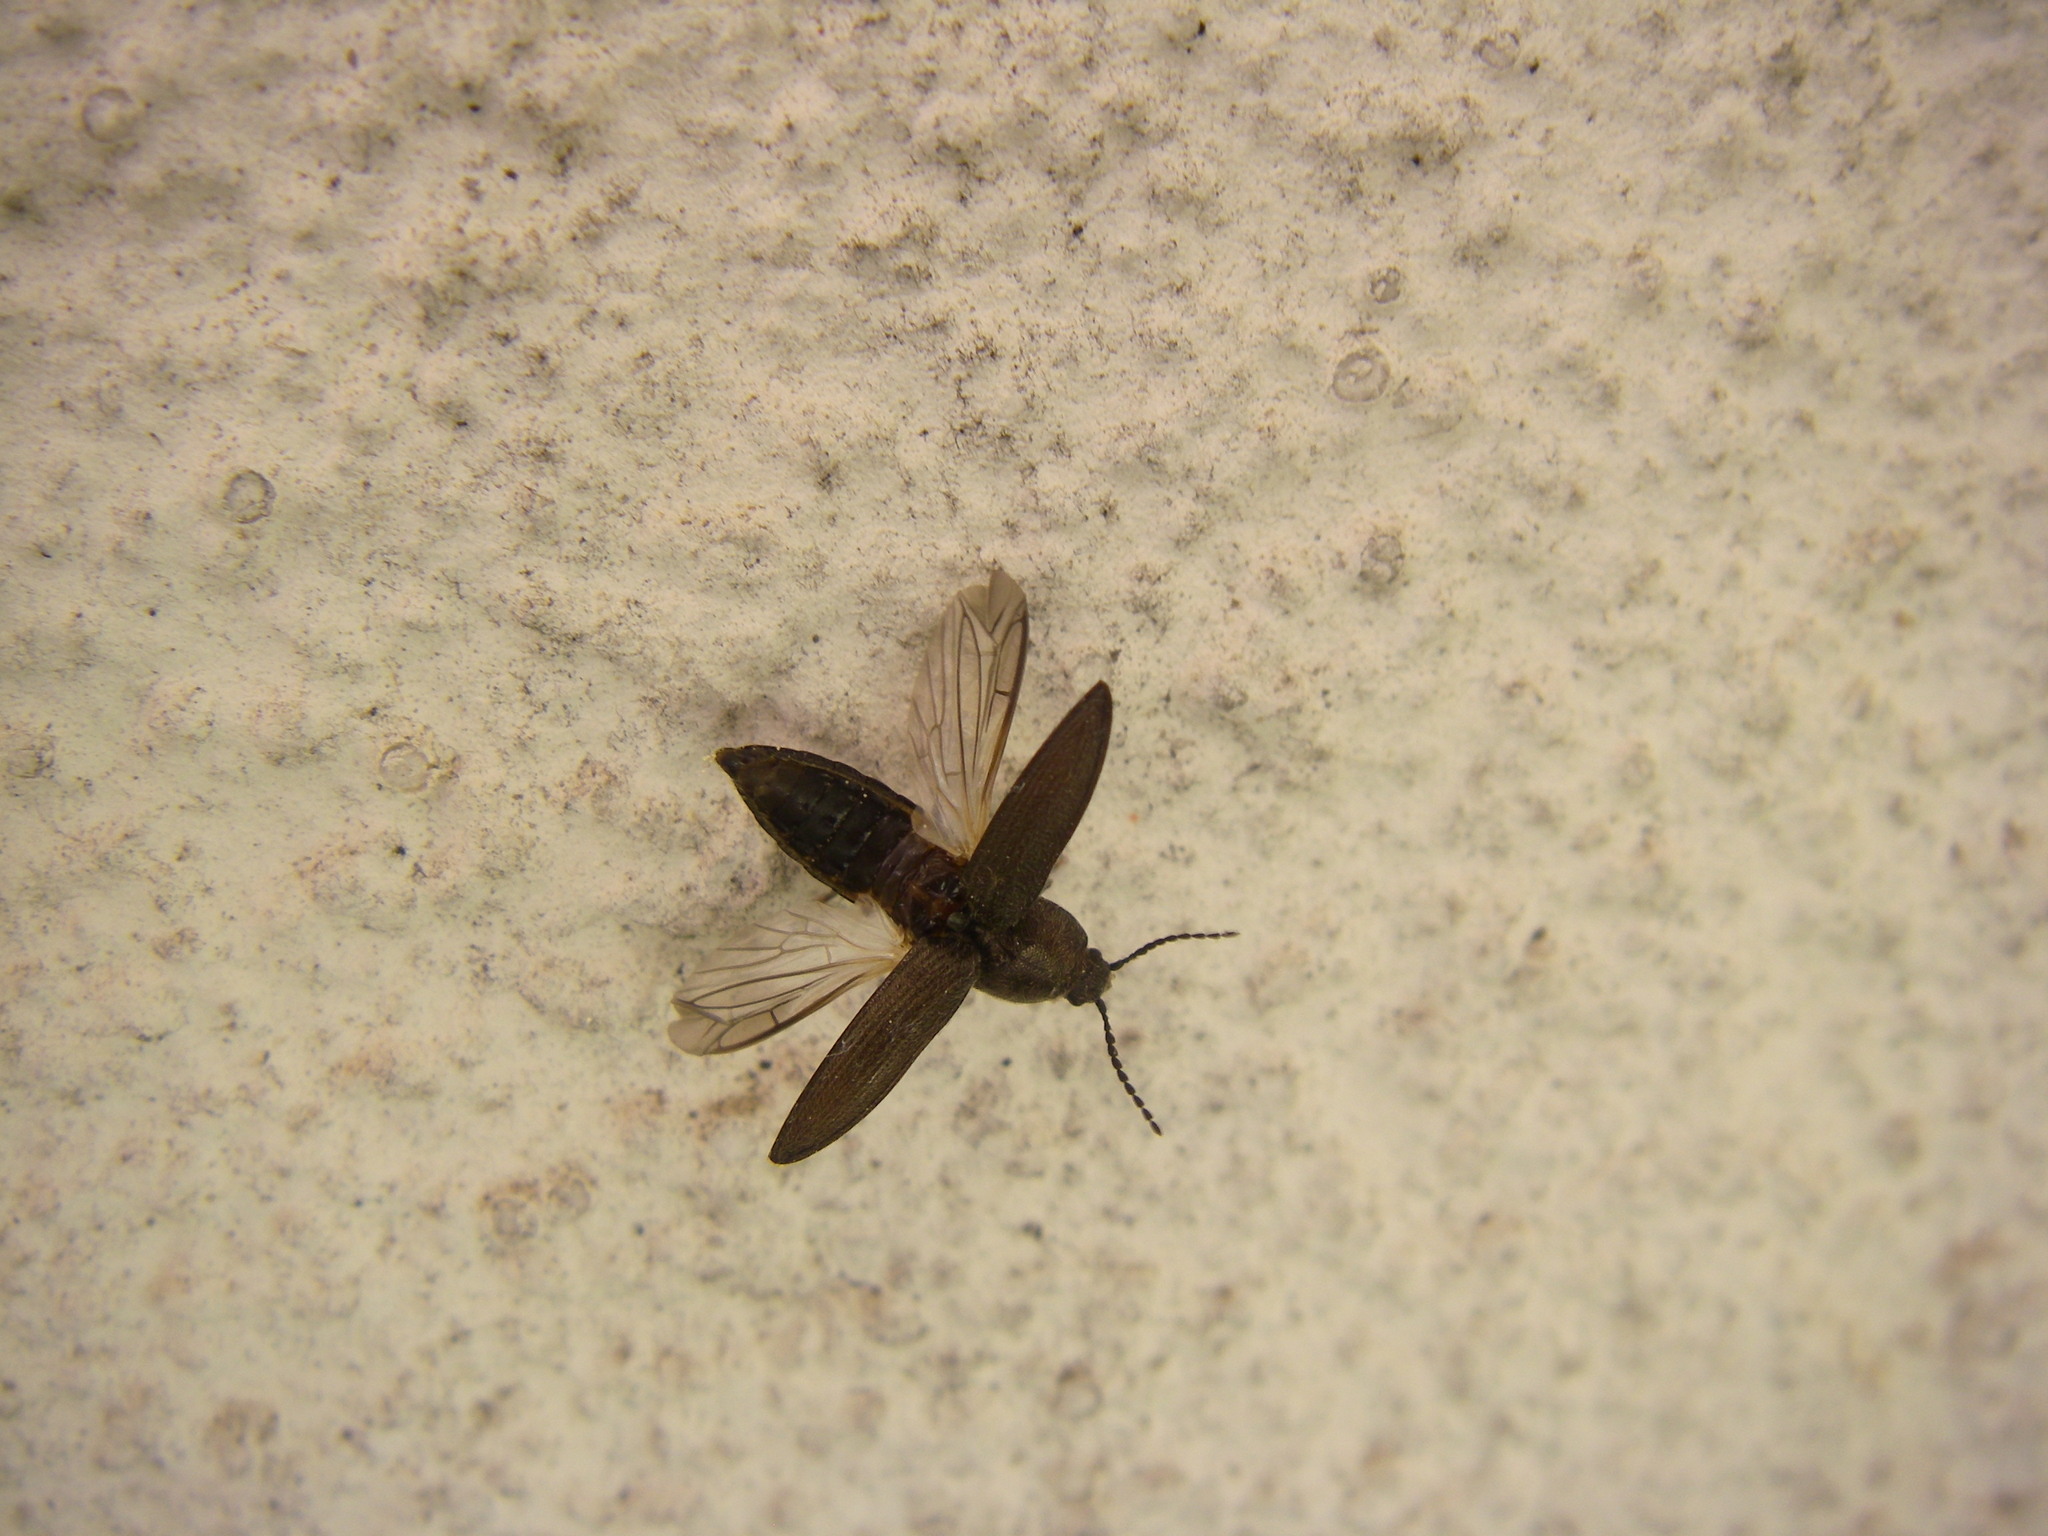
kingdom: Animalia
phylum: Arthropoda
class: Insecta
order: Coleoptera
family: Elateridae
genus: Cidnopus
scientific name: Cidnopus pilosus
